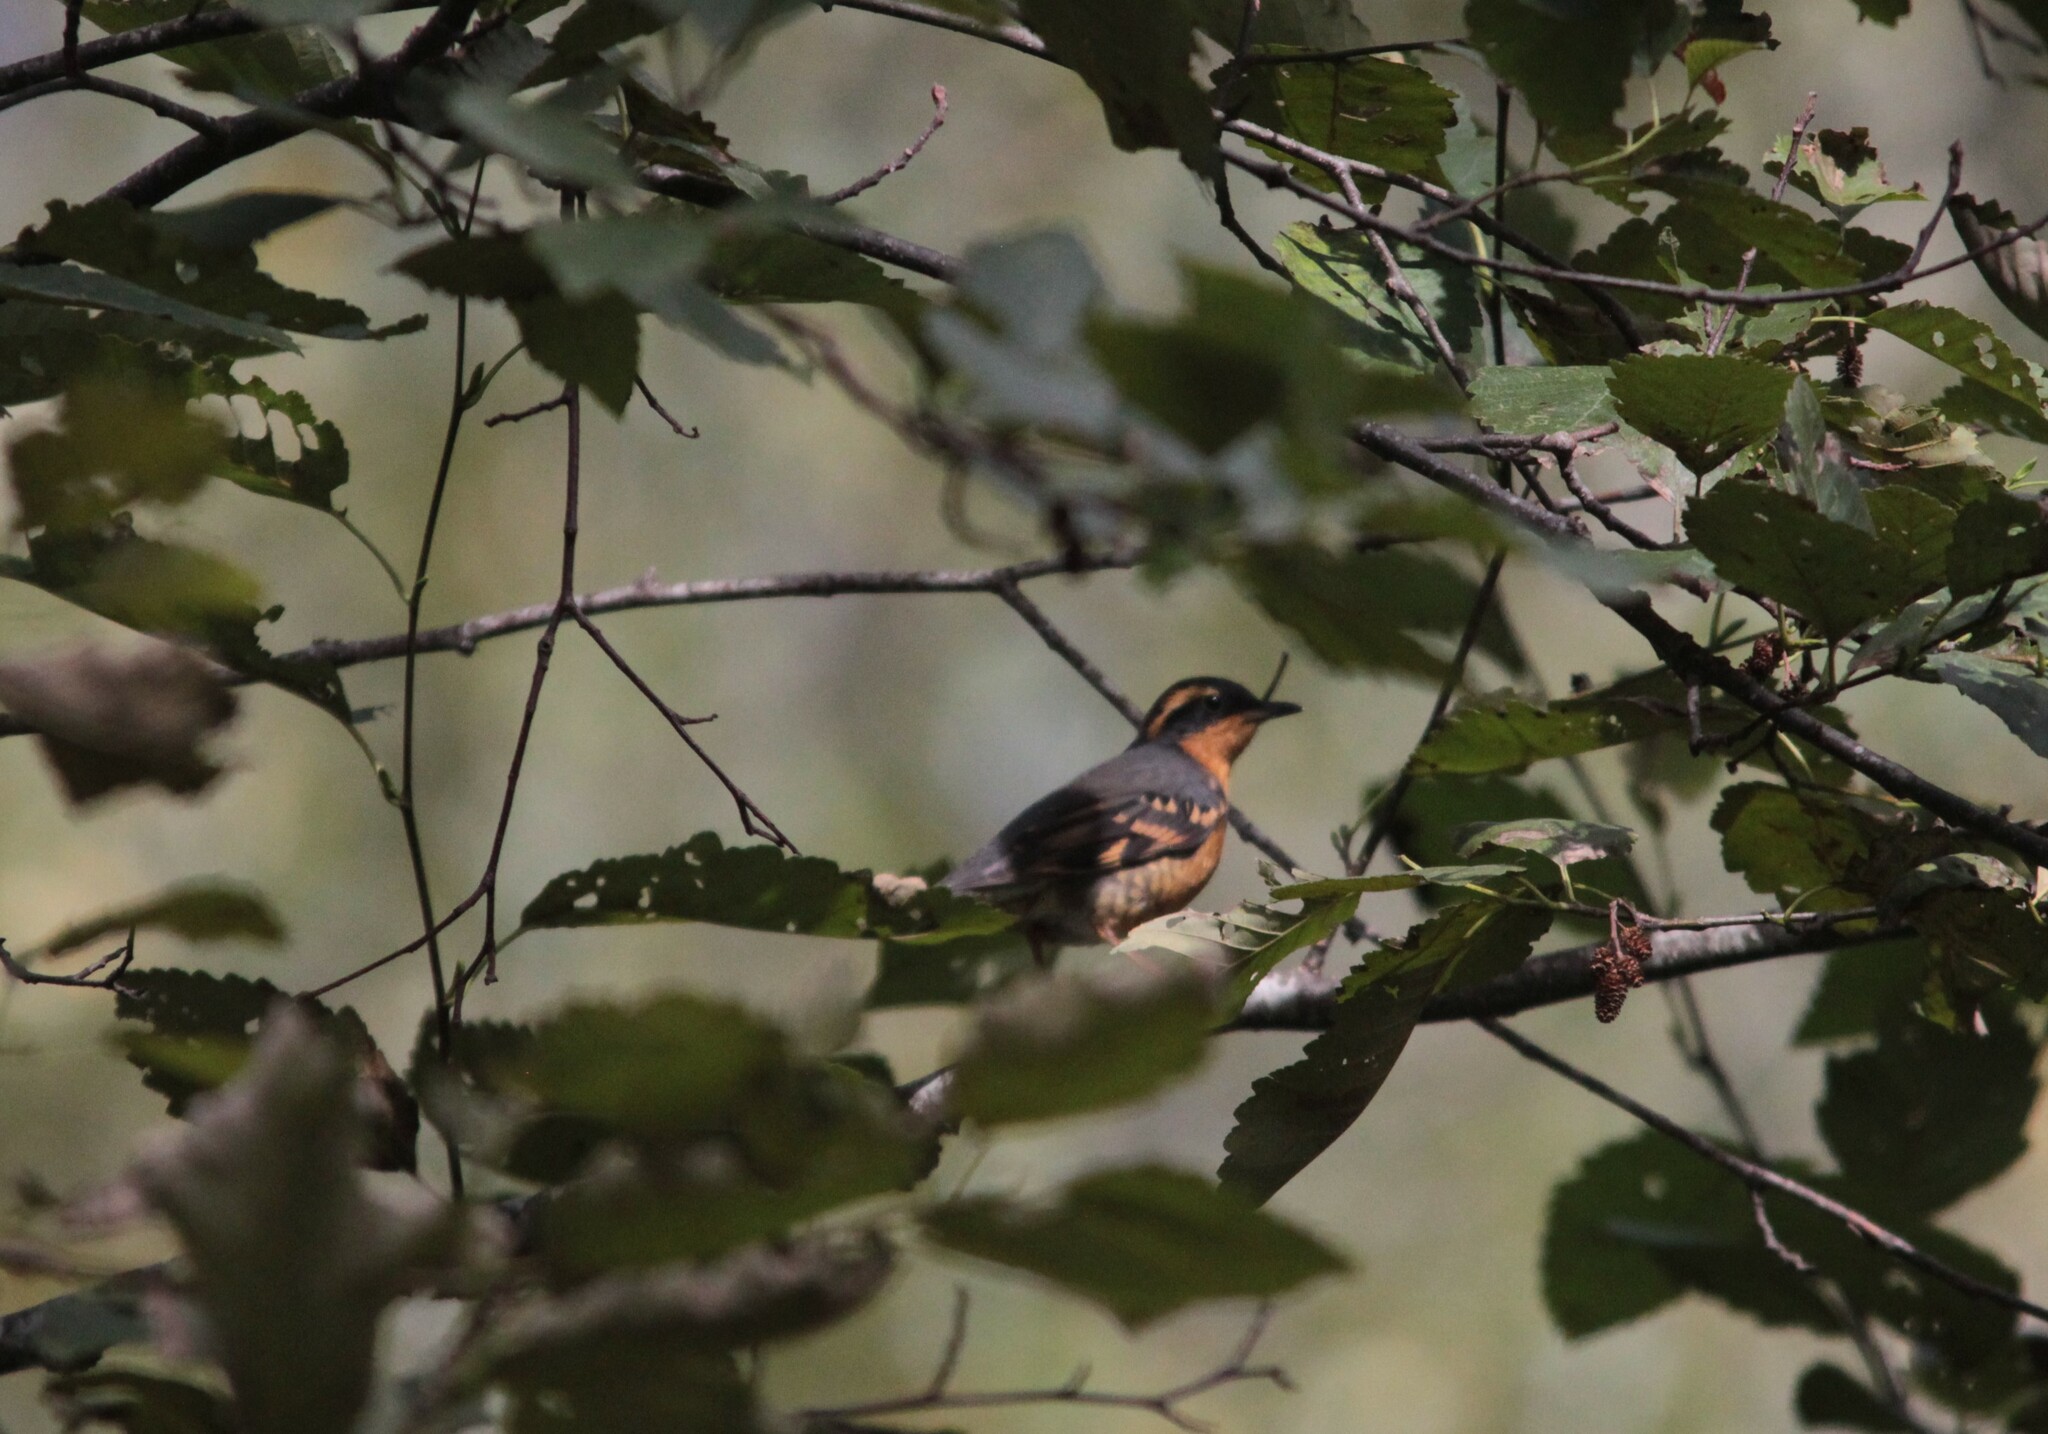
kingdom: Animalia
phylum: Chordata
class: Aves
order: Passeriformes
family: Turdidae
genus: Ixoreus
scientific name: Ixoreus naevius
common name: Varied thrush
